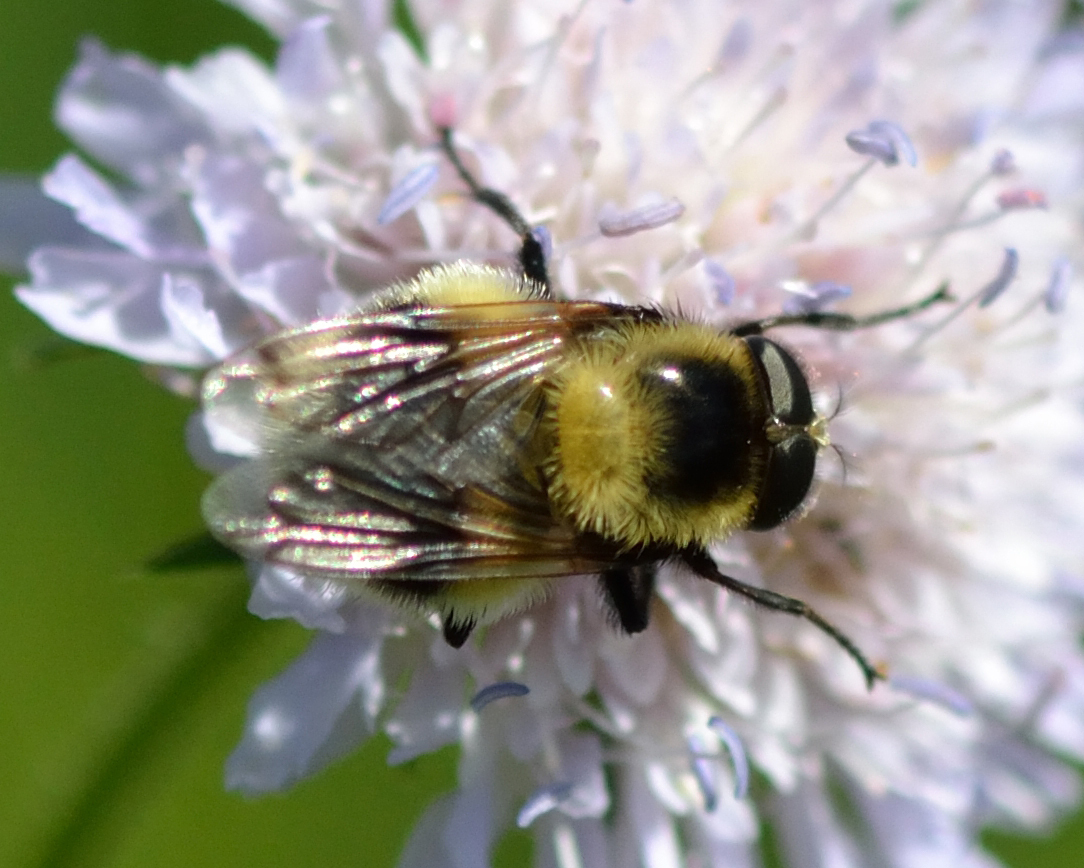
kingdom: Animalia
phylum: Arthropoda
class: Insecta
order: Diptera
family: Syrphidae
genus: Volucella
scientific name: Volucella bombylans
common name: Bumble bee hover fly
